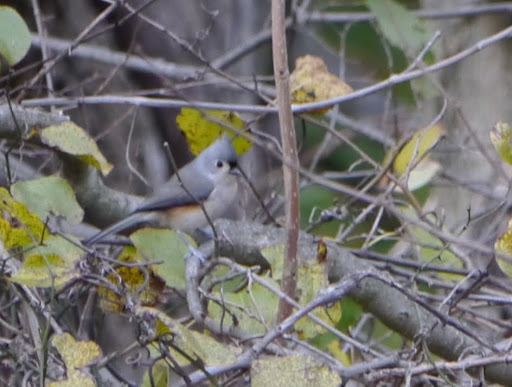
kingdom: Animalia
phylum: Chordata
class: Aves
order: Passeriformes
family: Paridae
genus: Baeolophus
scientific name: Baeolophus bicolor
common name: Tufted titmouse
